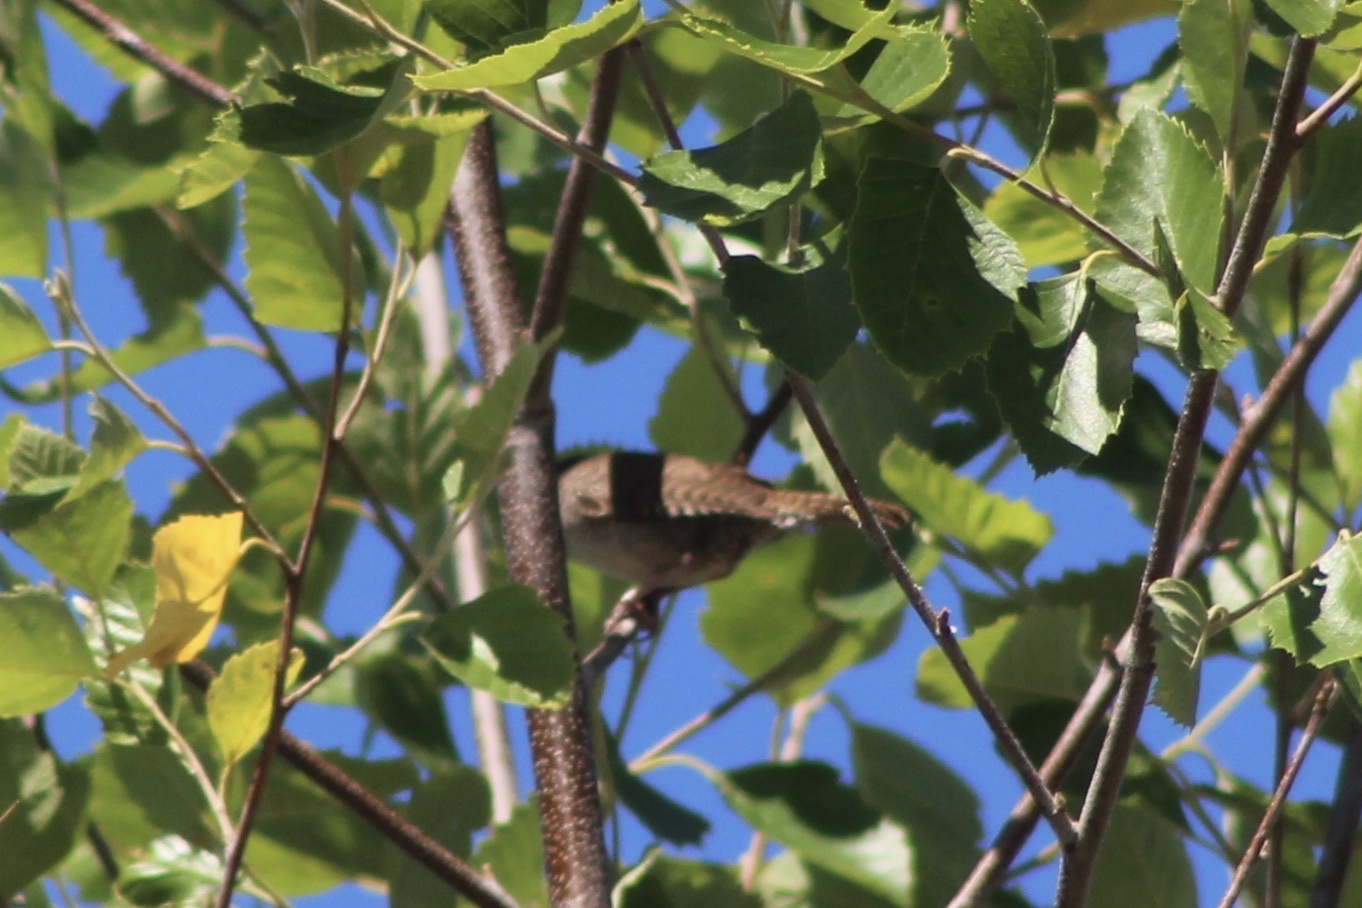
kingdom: Animalia
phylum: Chordata
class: Aves
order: Passeriformes
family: Troglodytidae
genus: Troglodytes
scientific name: Troglodytes aedon
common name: House wren
